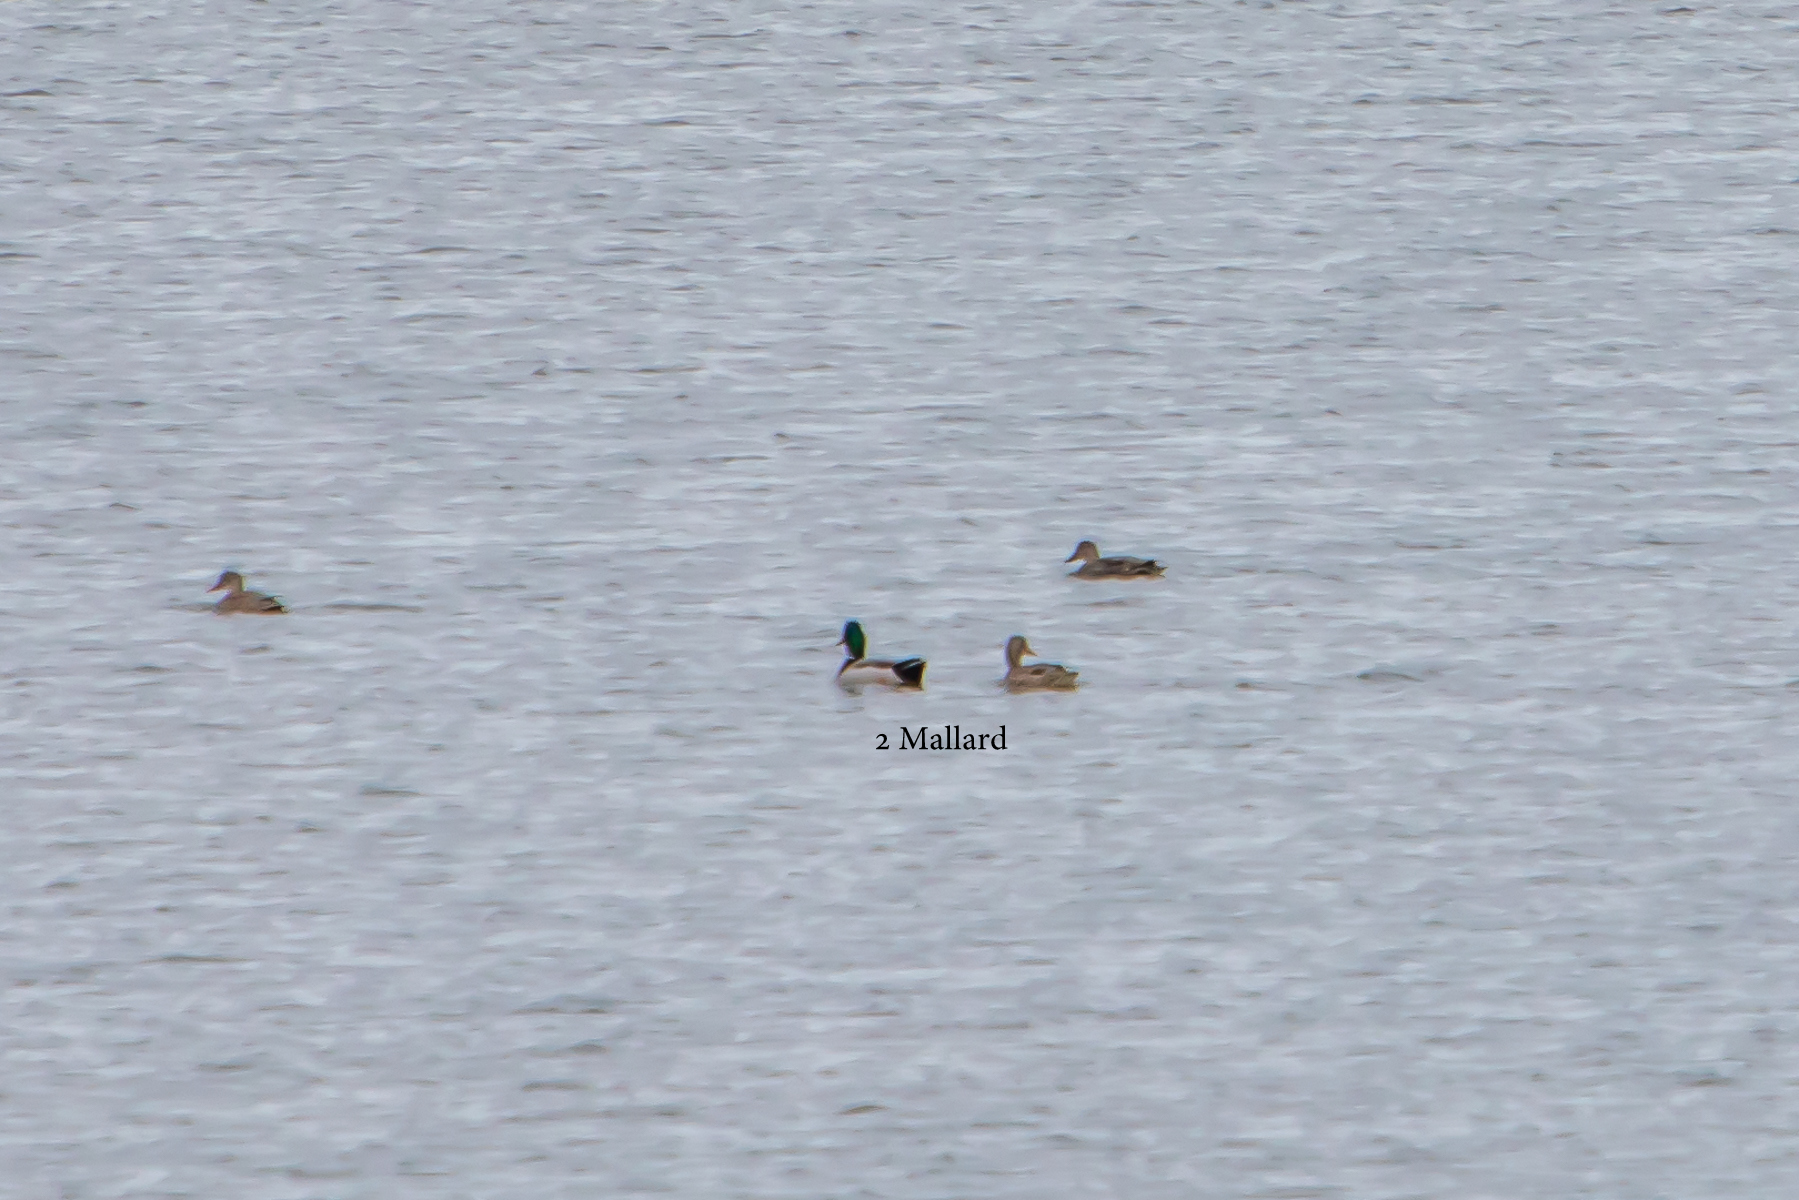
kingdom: Animalia
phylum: Chordata
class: Aves
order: Anseriformes
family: Anatidae
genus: Anas
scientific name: Anas platyrhynchos
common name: Mallard
